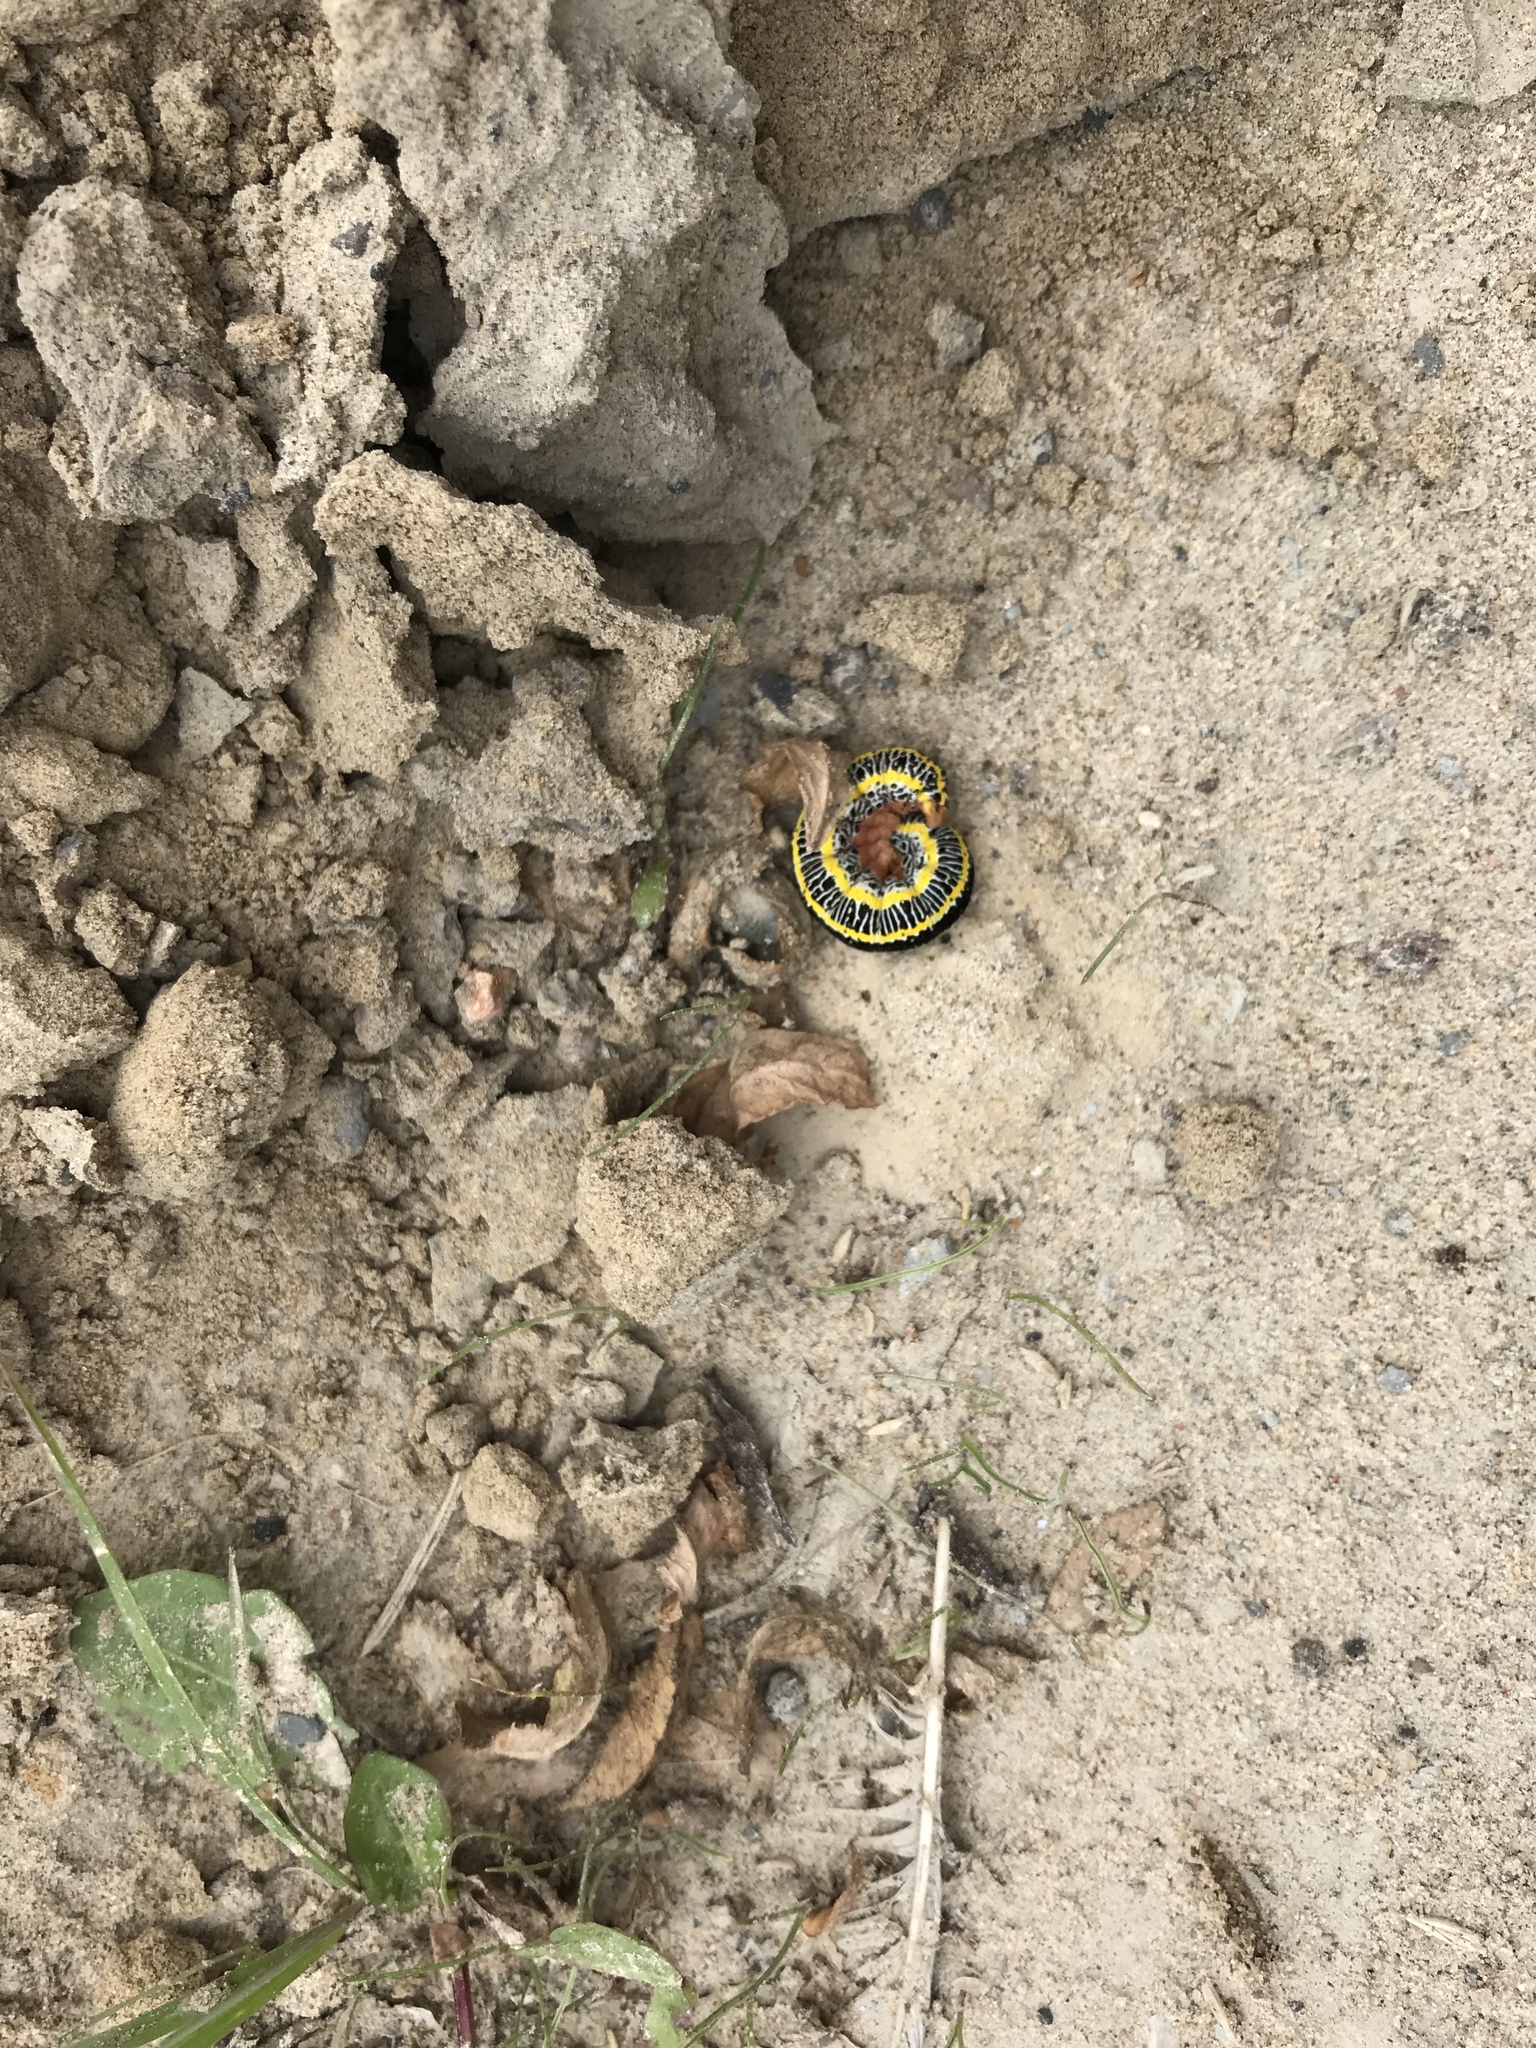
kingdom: Animalia
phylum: Arthropoda
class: Insecta
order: Lepidoptera
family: Noctuidae
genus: Melanchra
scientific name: Melanchra picta
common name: Zebra caterpillar
